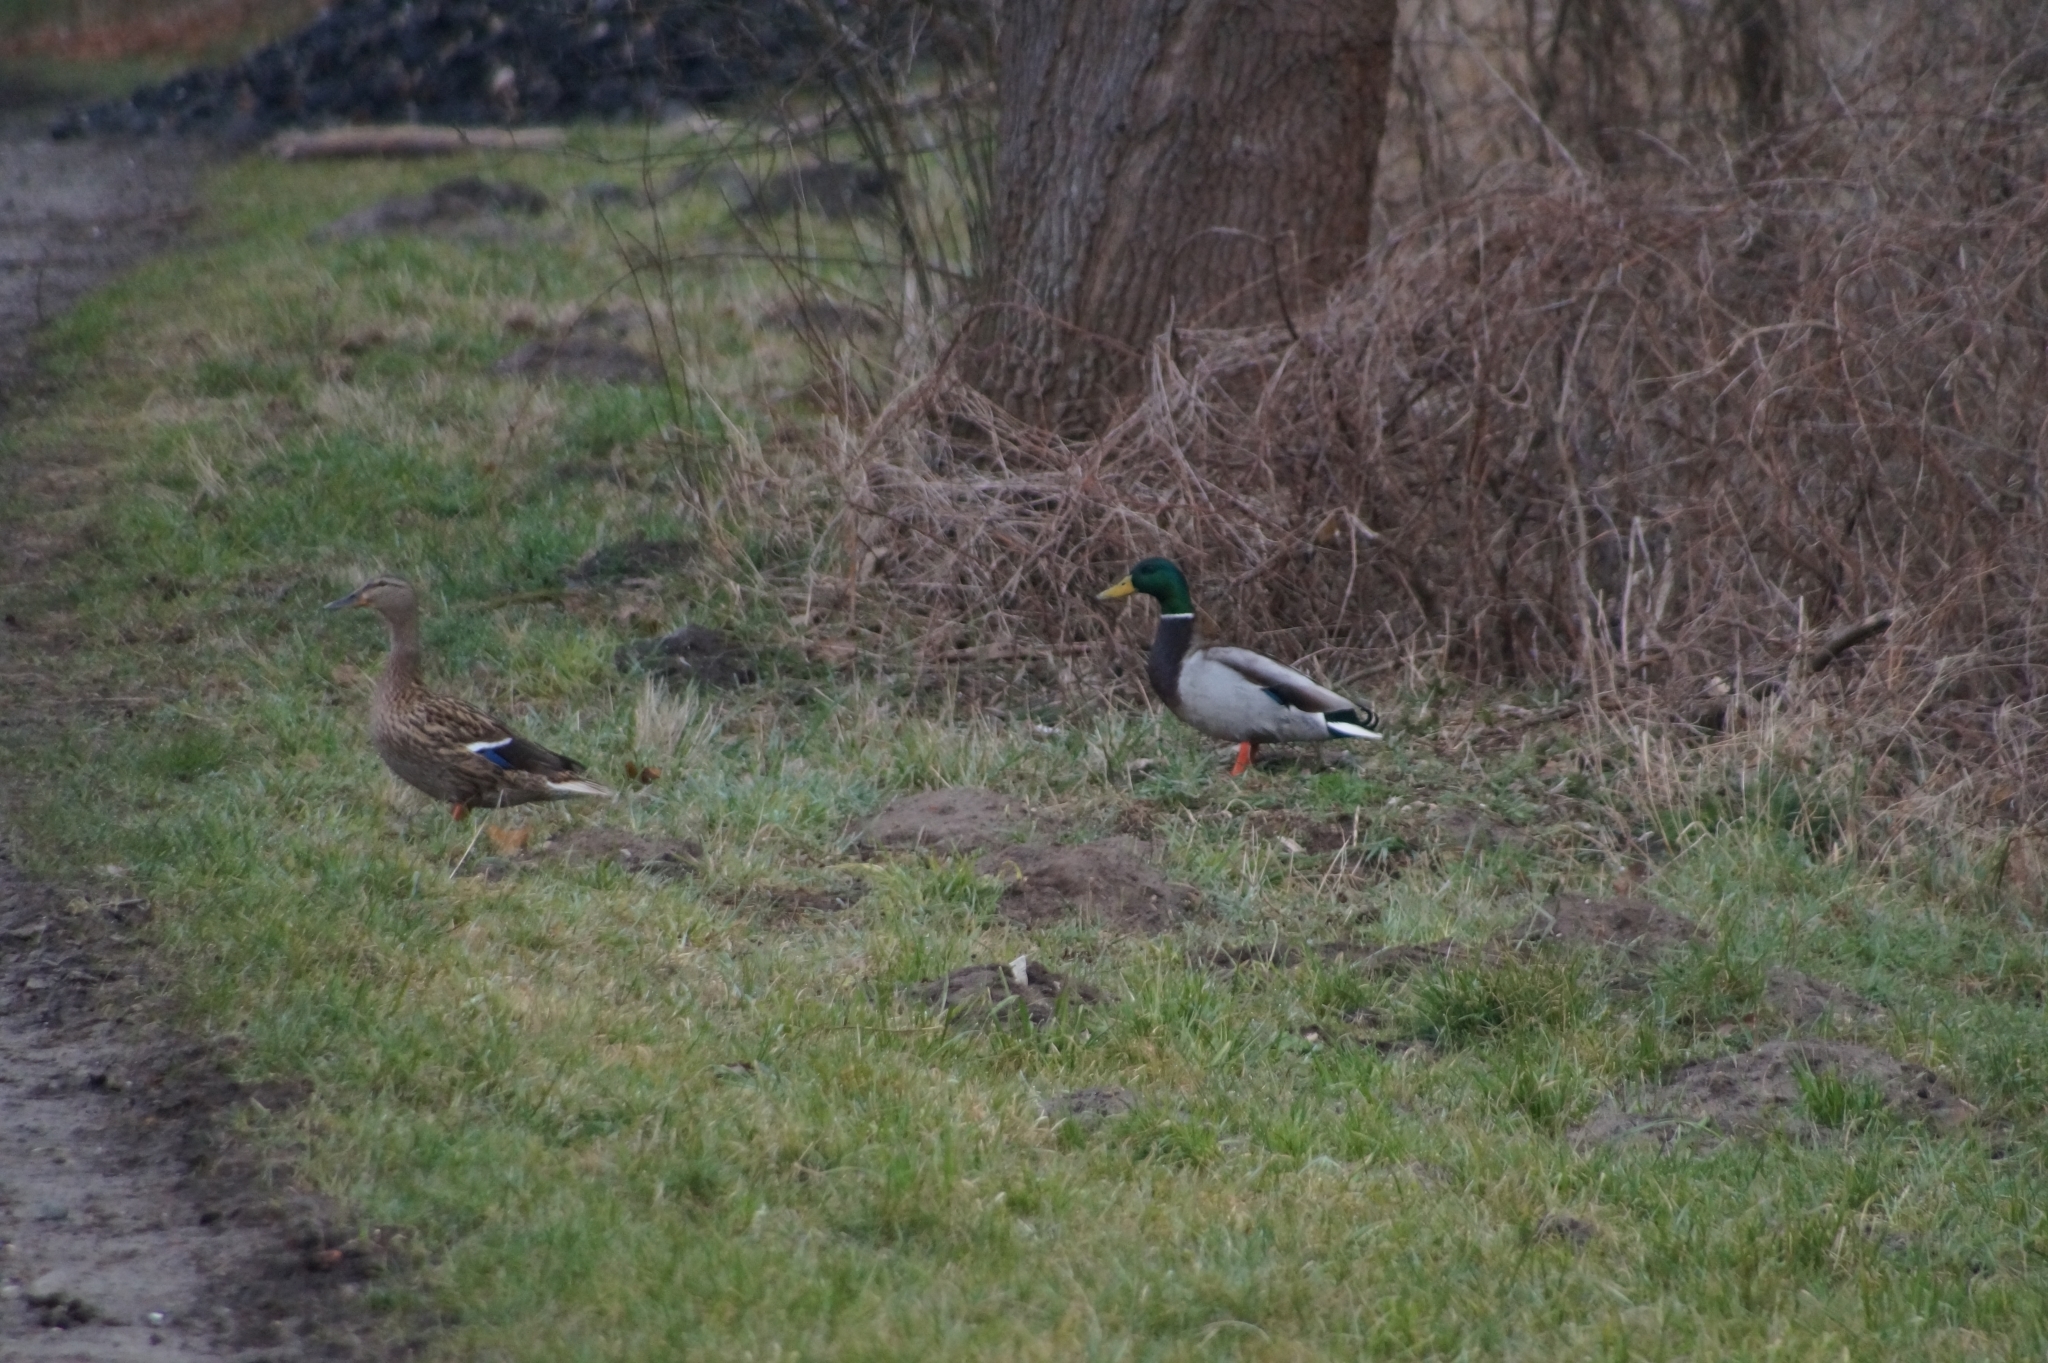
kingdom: Animalia
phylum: Chordata
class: Aves
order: Anseriformes
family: Anatidae
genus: Anas
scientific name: Anas platyrhynchos
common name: Mallard
